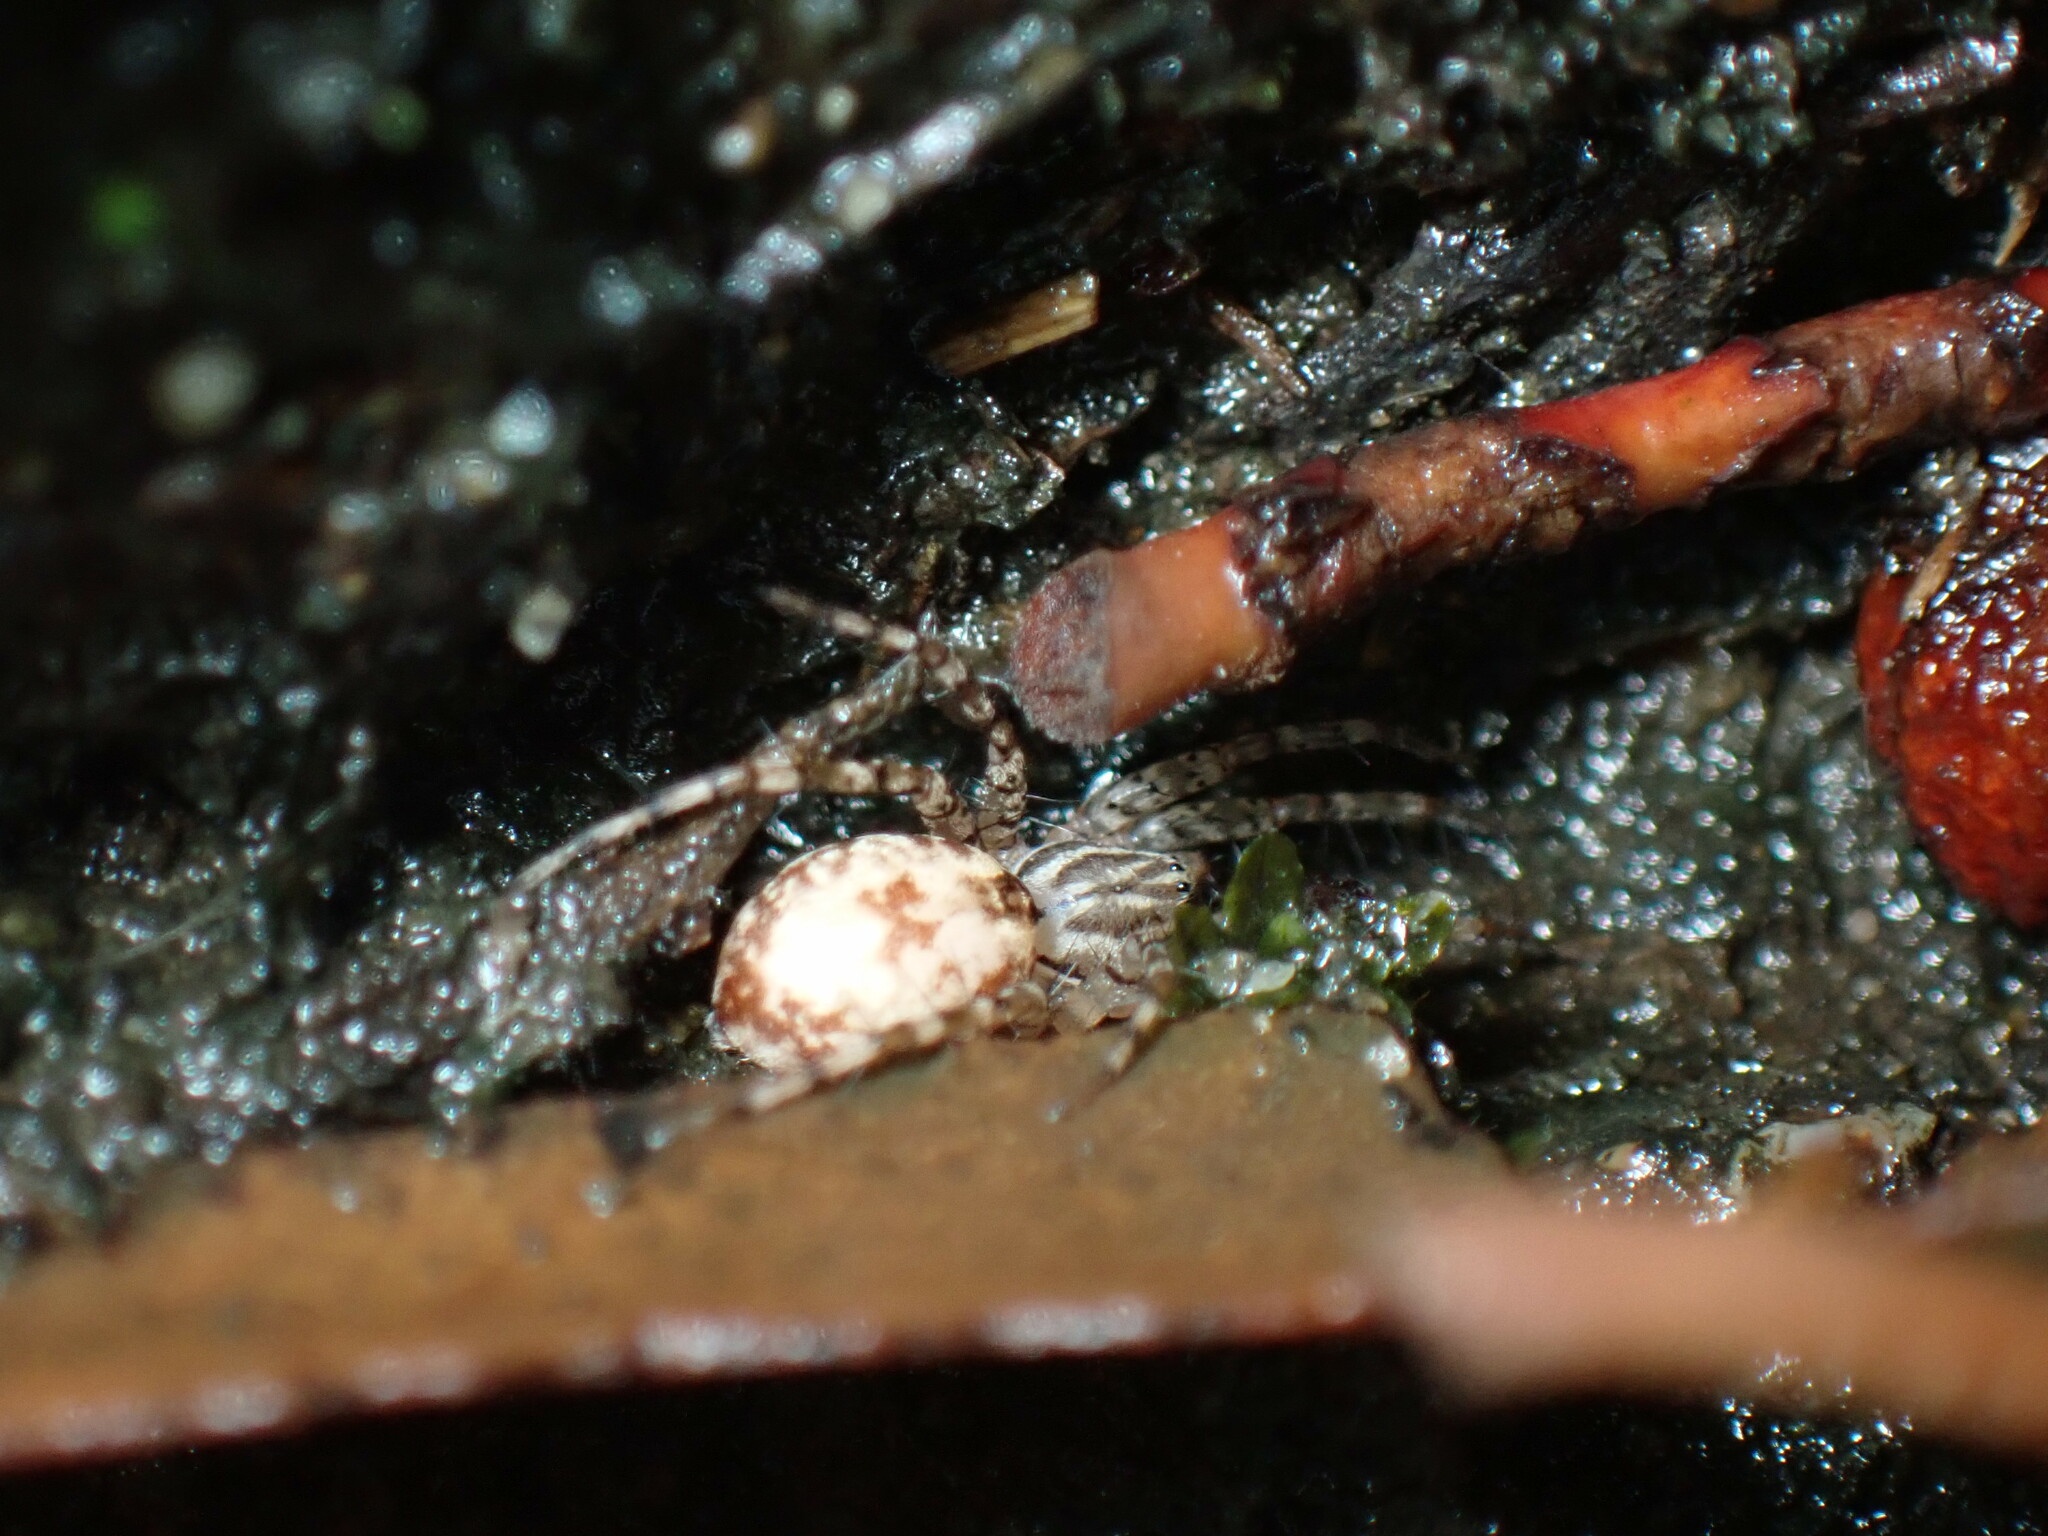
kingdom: Animalia
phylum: Arthropoda
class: Arachnida
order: Araneae
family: Corinnidae
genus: Echinax
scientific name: Echinax panache
